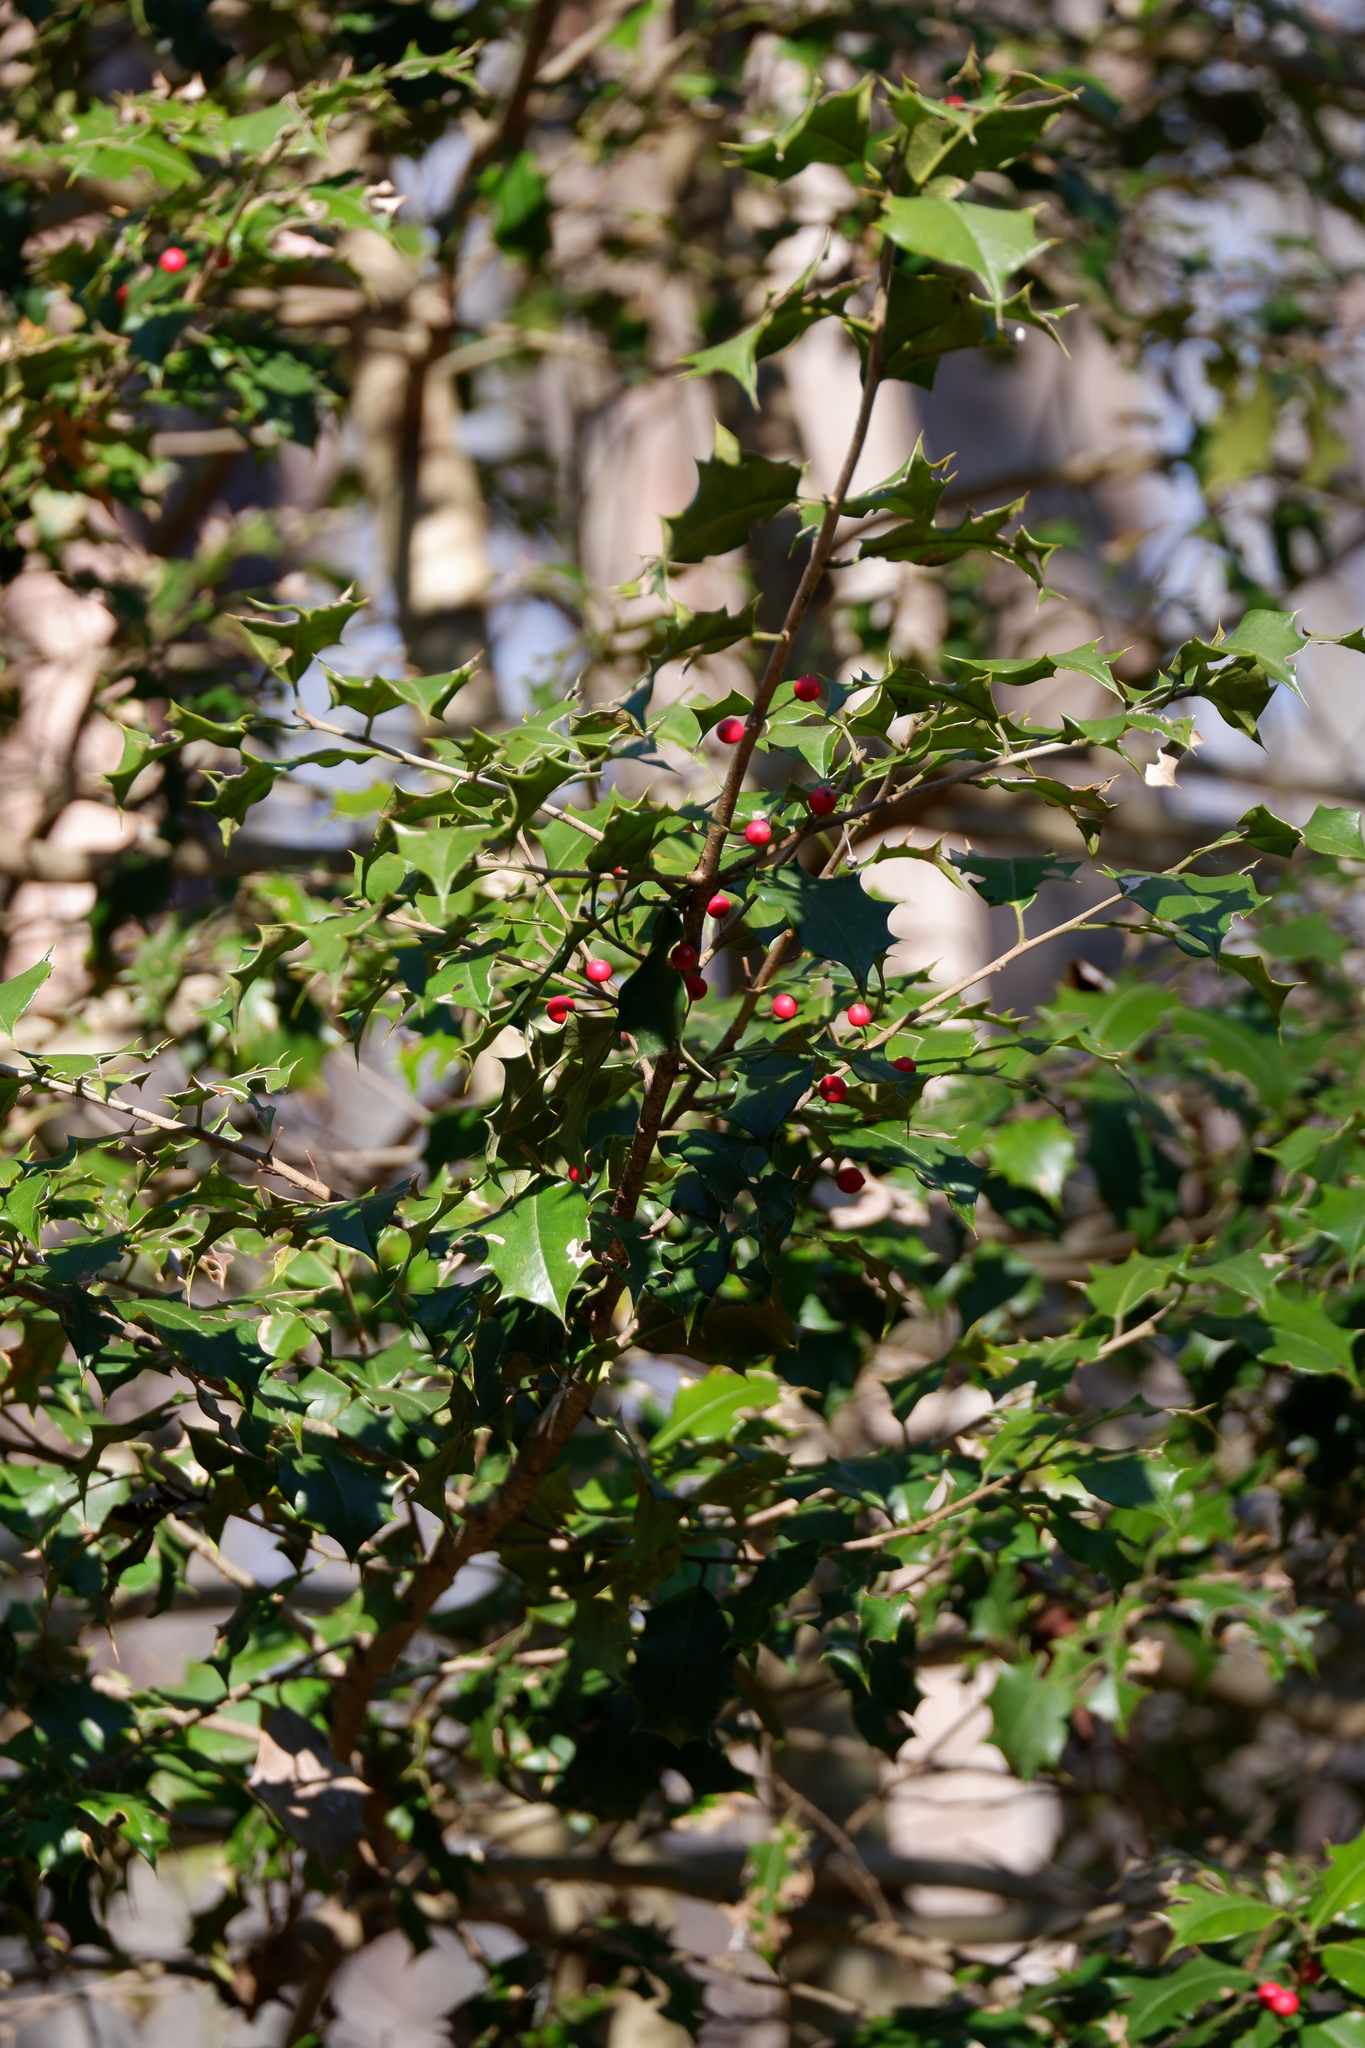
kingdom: Plantae
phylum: Tracheophyta
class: Magnoliopsida
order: Aquifoliales
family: Aquifoliaceae
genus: Ilex
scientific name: Ilex opaca
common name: American holly
